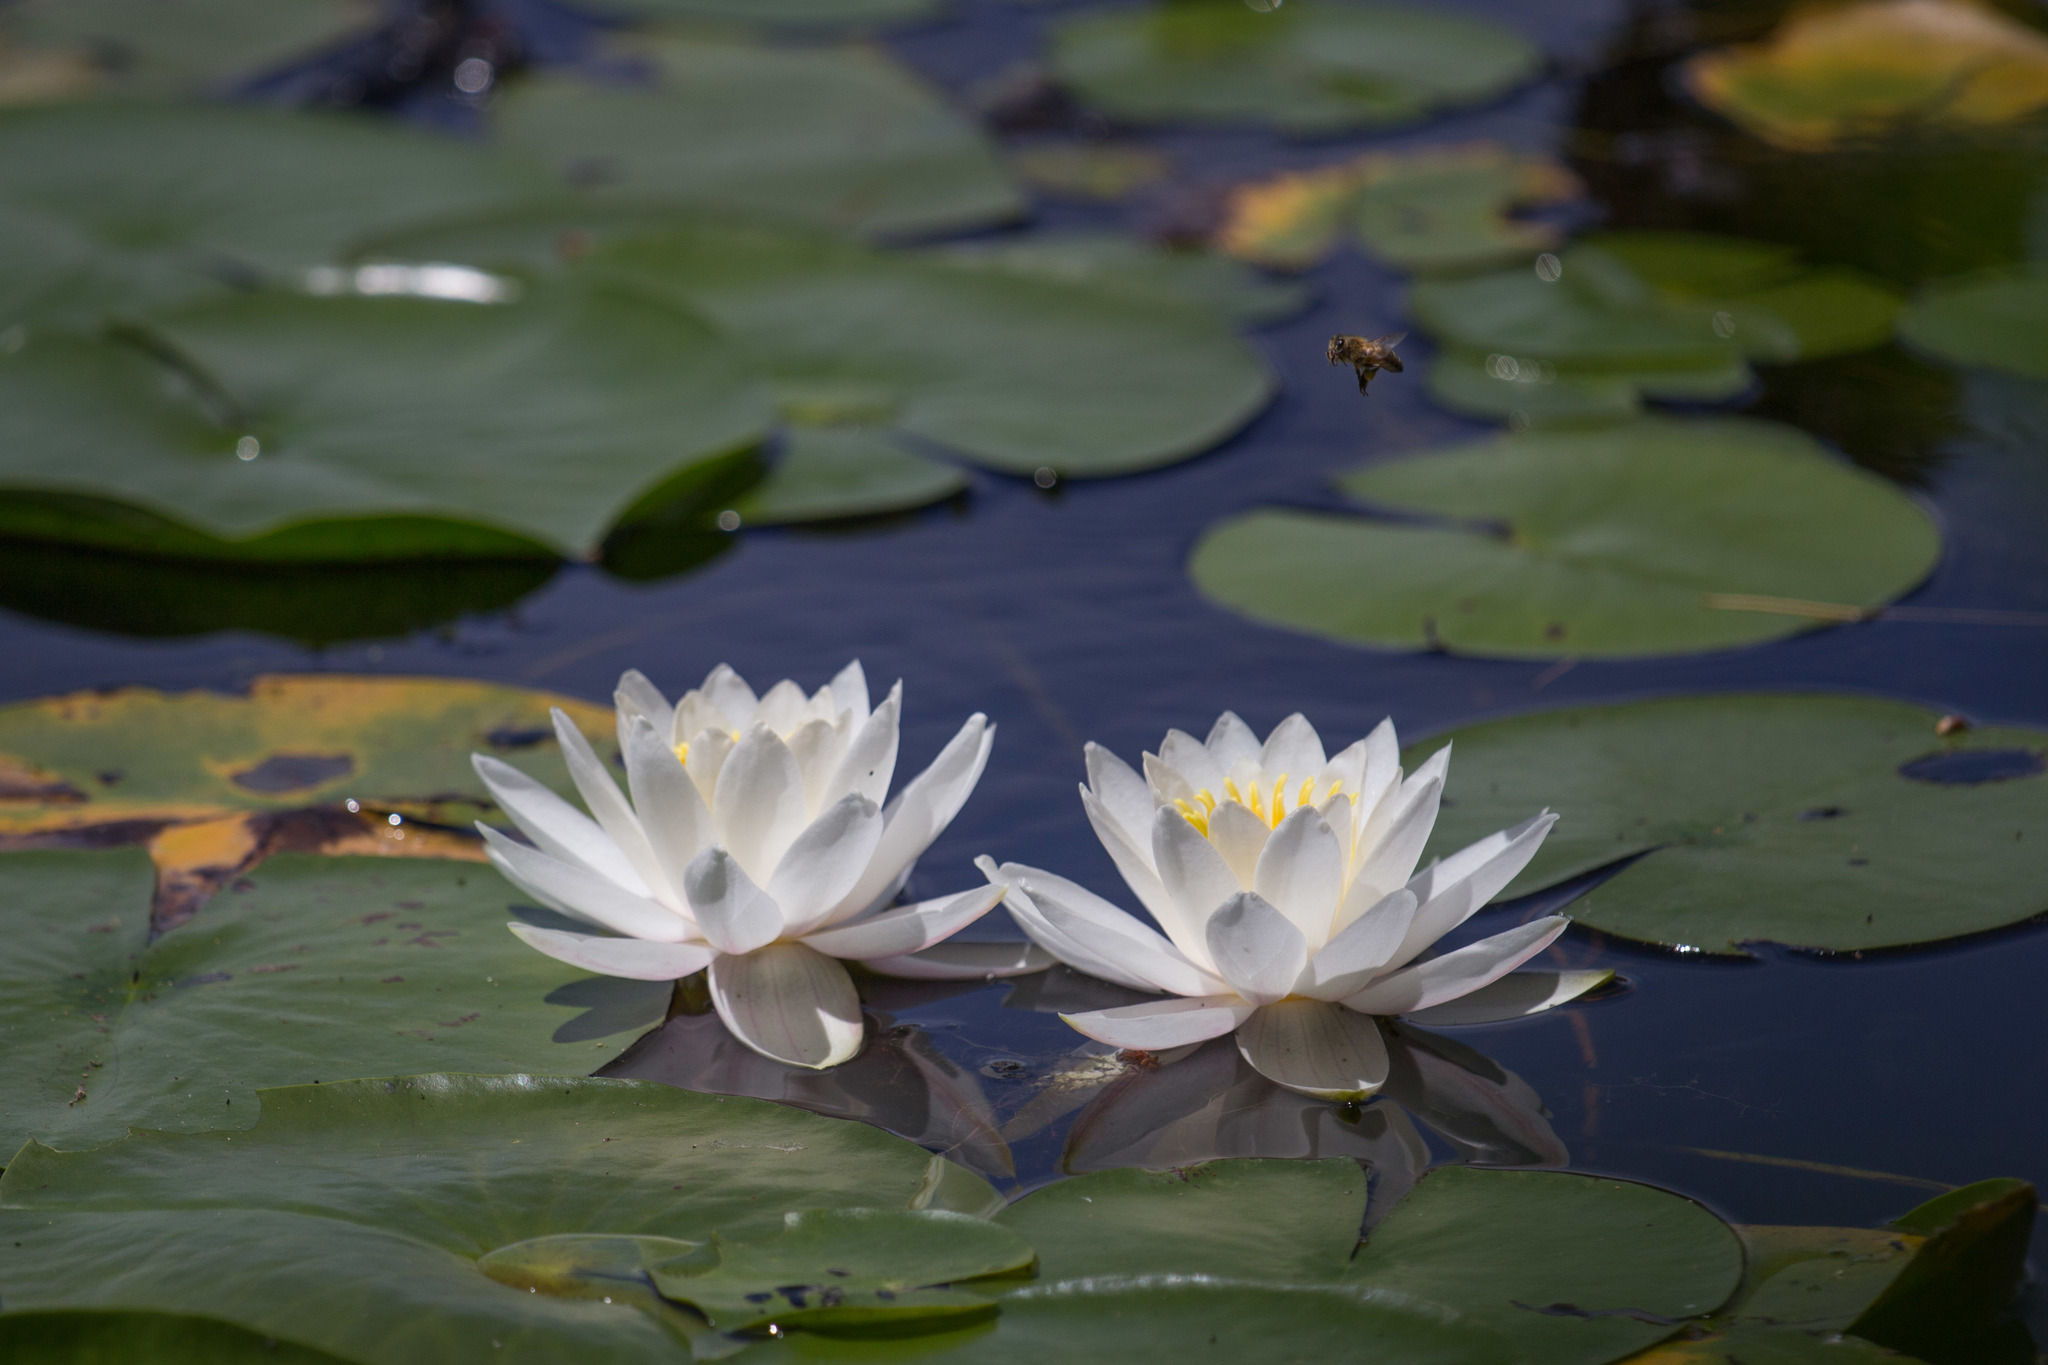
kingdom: Plantae
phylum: Tracheophyta
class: Magnoliopsida
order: Nymphaeales
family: Nymphaeaceae
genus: Nymphaea
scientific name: Nymphaea odorata
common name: Fragrant water-lily
